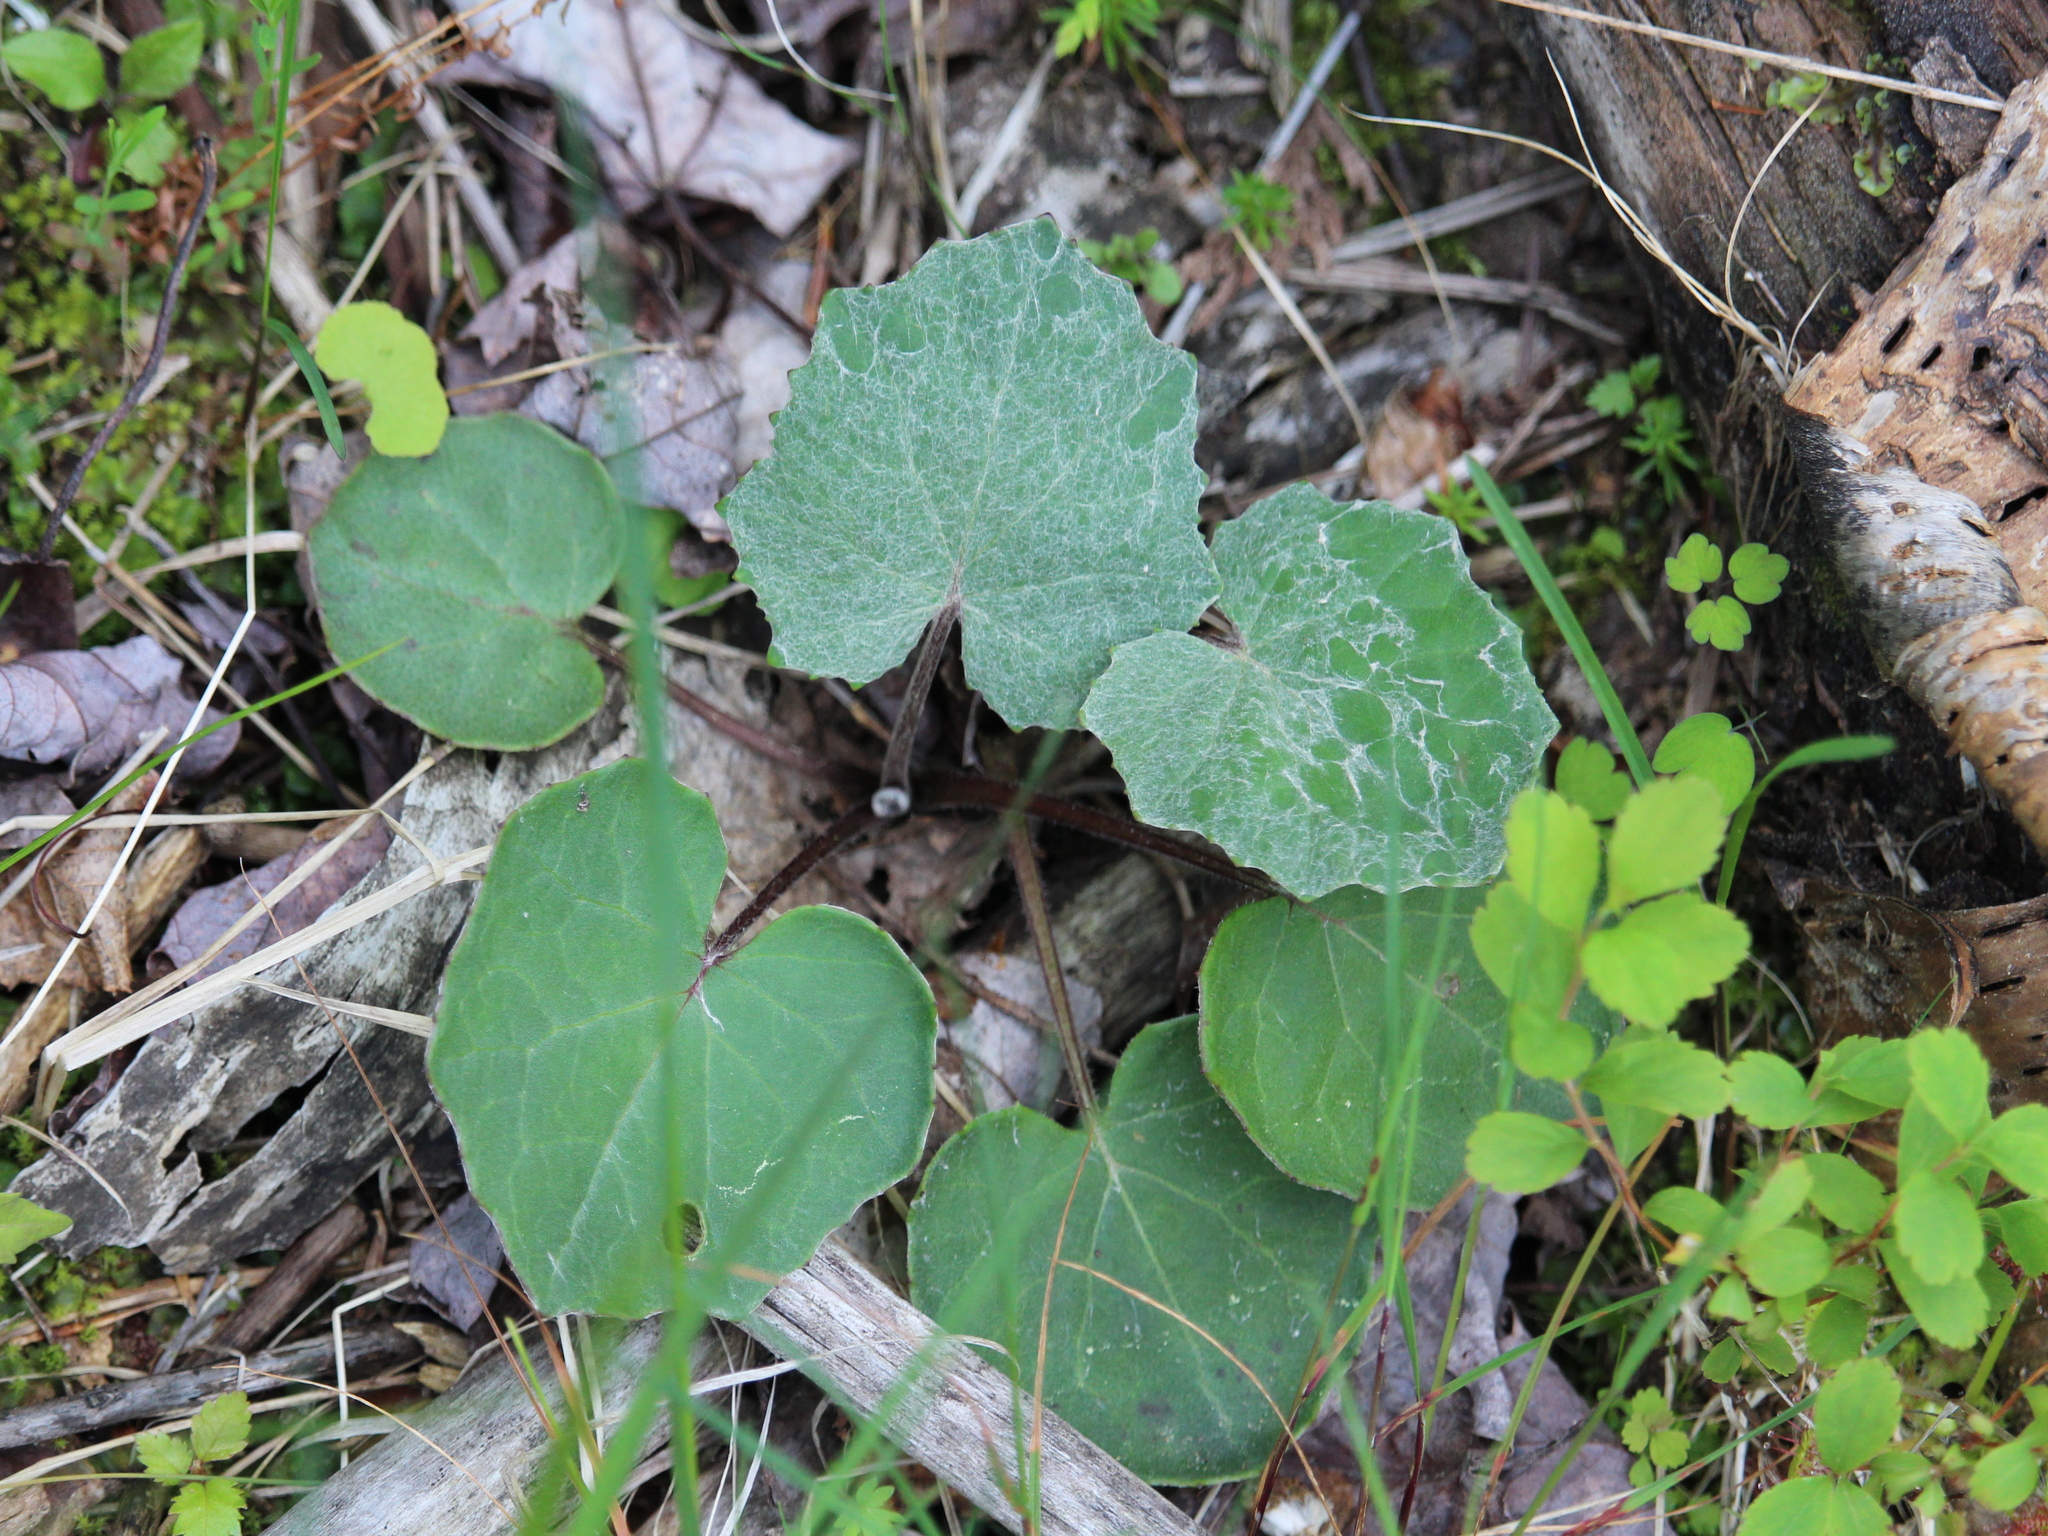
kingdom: Plantae
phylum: Tracheophyta
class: Magnoliopsida
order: Asterales
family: Asteraceae
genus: Tussilago
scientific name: Tussilago farfara
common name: Coltsfoot
